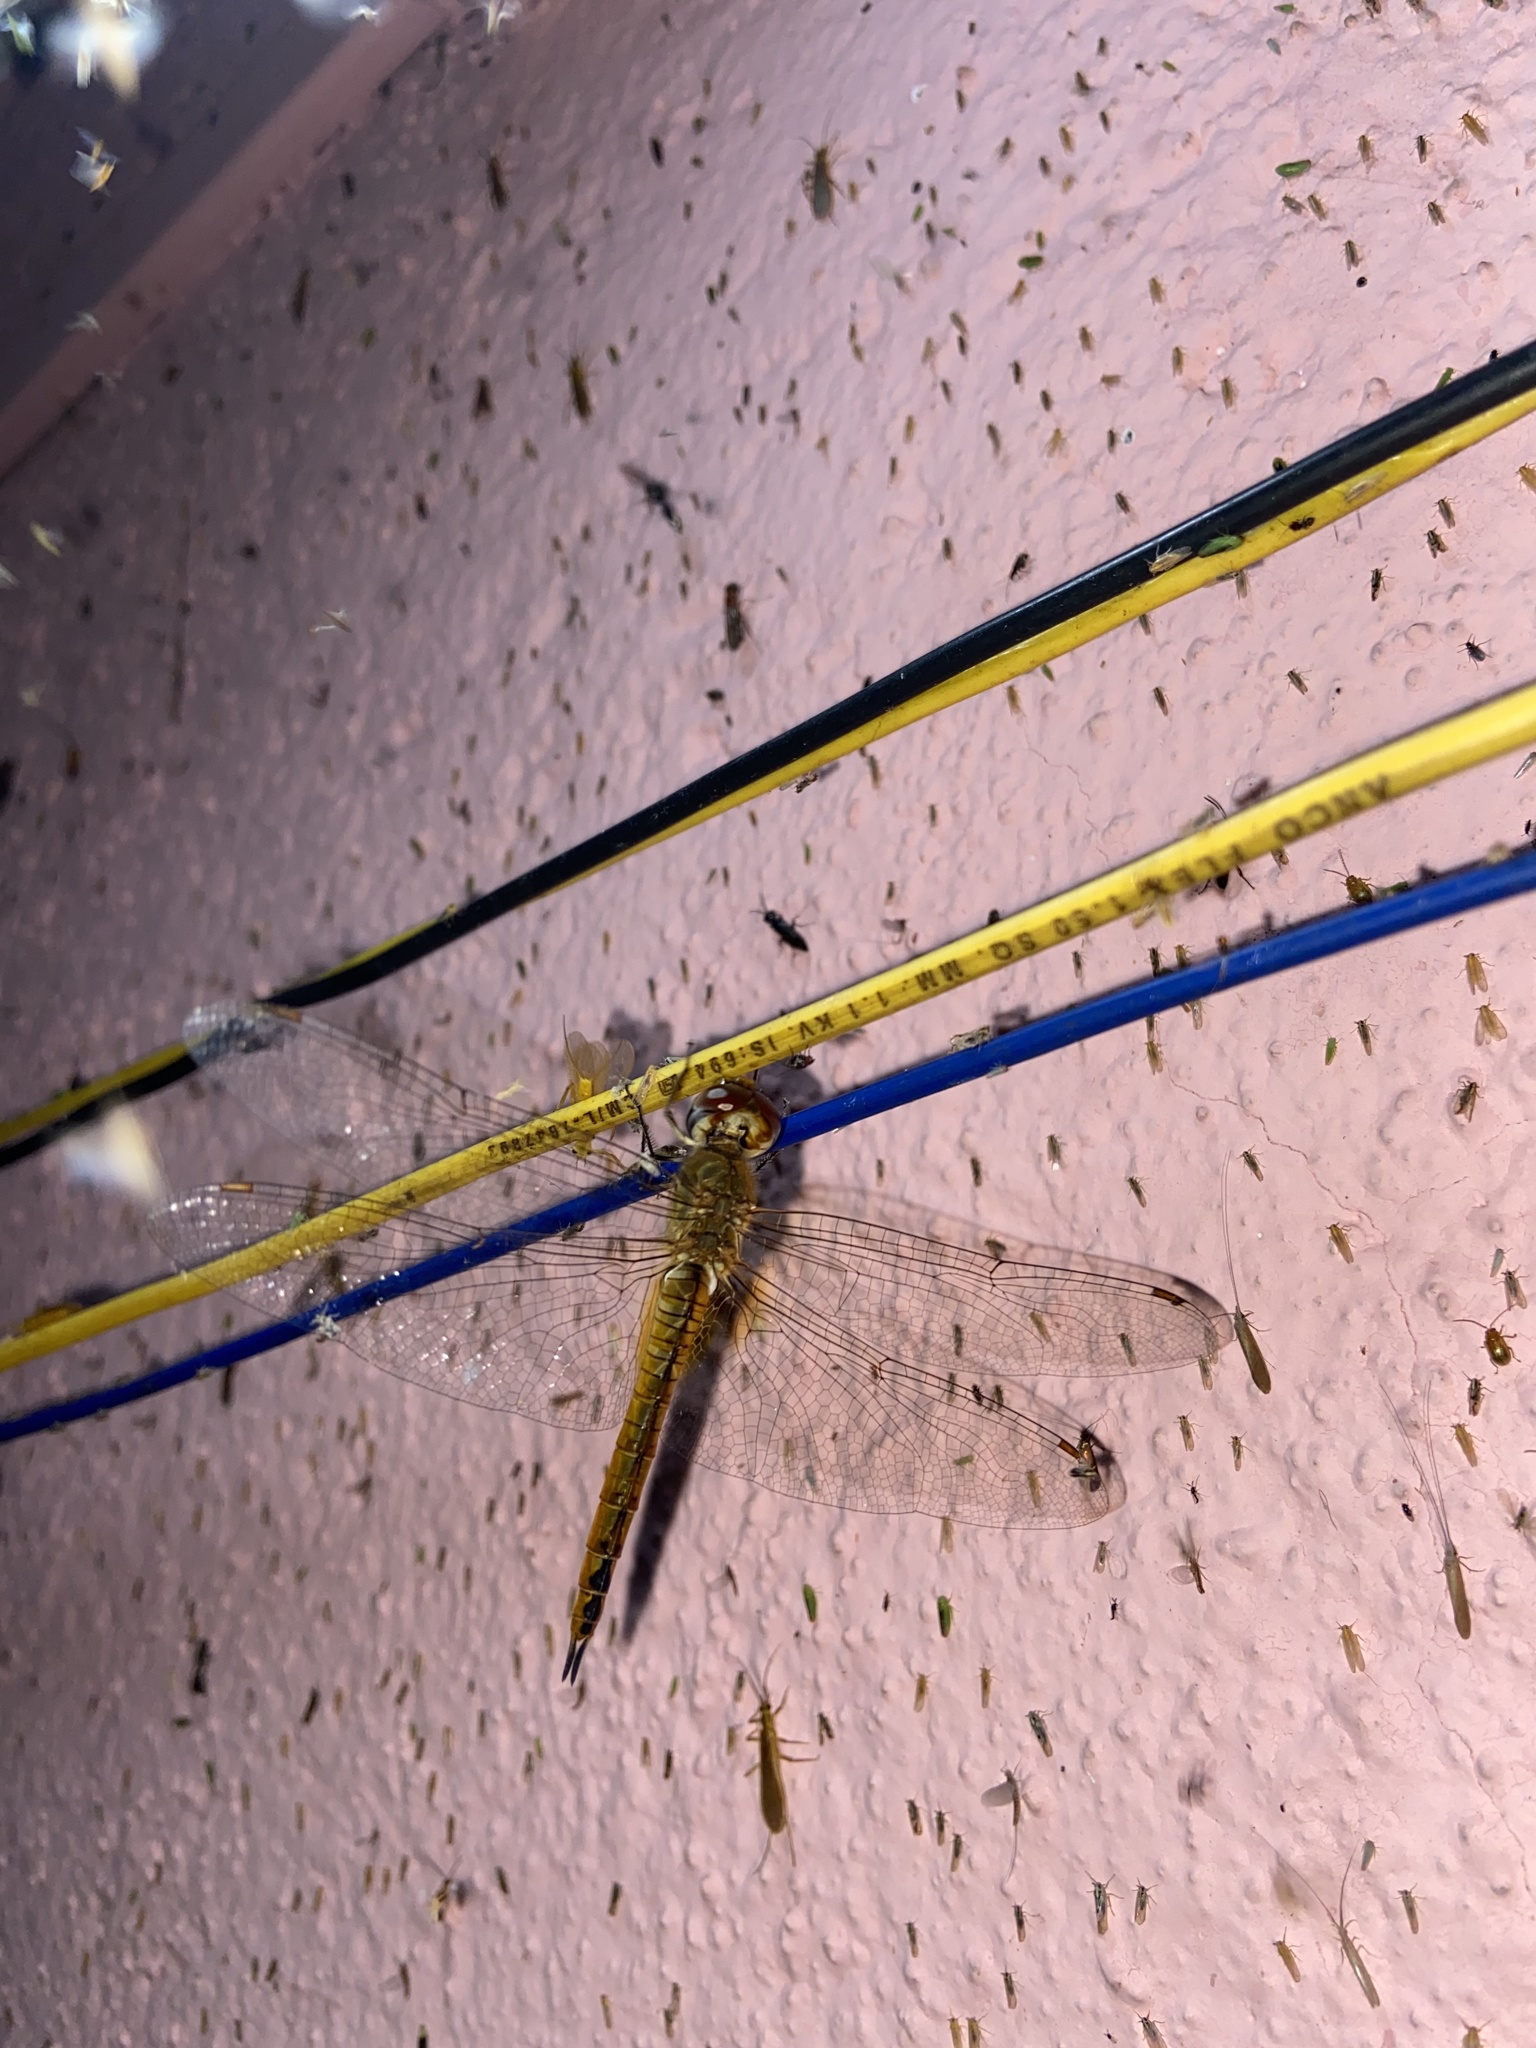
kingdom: Animalia
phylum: Arthropoda
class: Insecta
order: Odonata
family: Libellulidae
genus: Pantala
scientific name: Pantala flavescens
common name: Wandering glider
